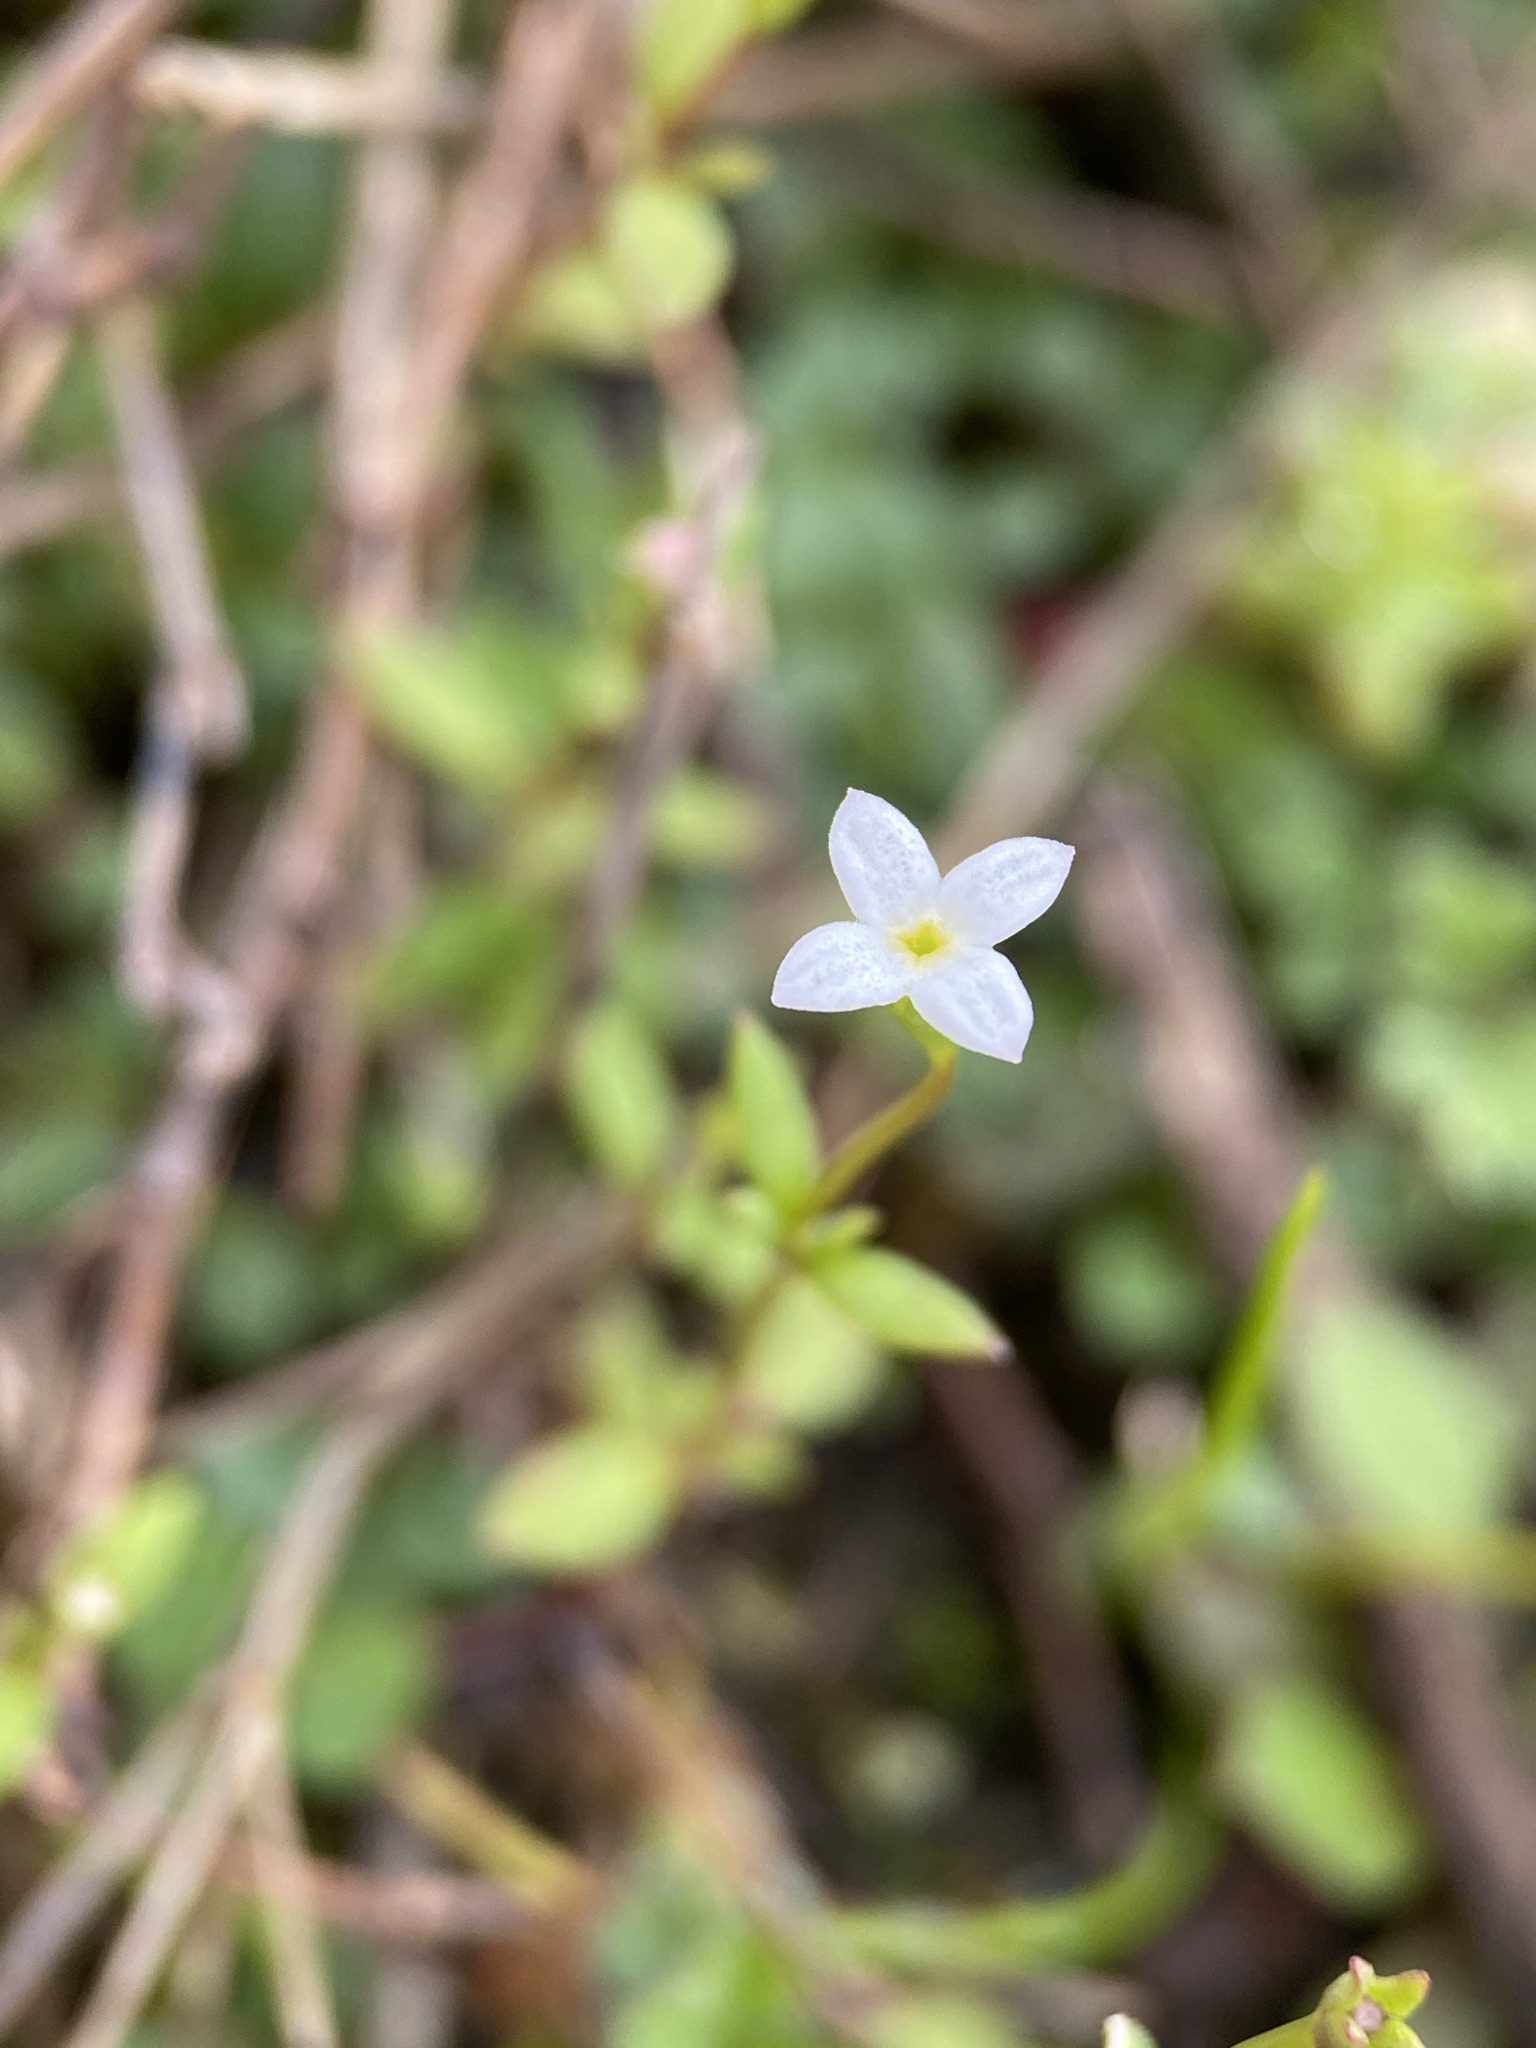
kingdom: Plantae
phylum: Tracheophyta
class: Magnoliopsida
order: Gentianales
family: Rubiaceae
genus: Houstonia
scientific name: Houstonia micrantha
